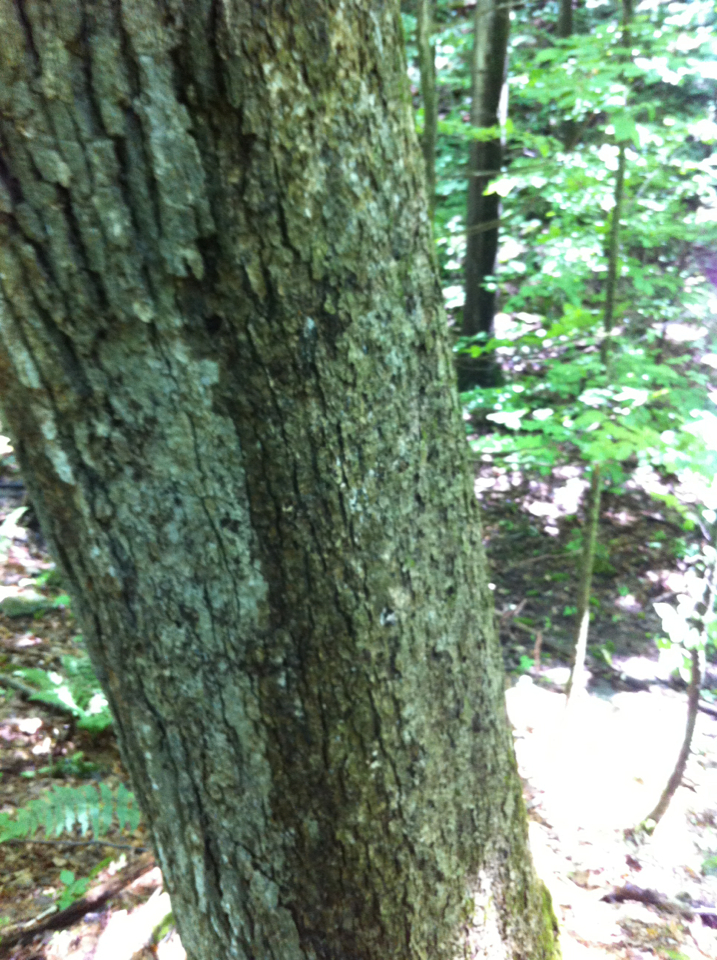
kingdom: Plantae
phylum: Tracheophyta
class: Magnoliopsida
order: Fagales
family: Fagaceae
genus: Quercus
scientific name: Quercus alba
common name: White oak
